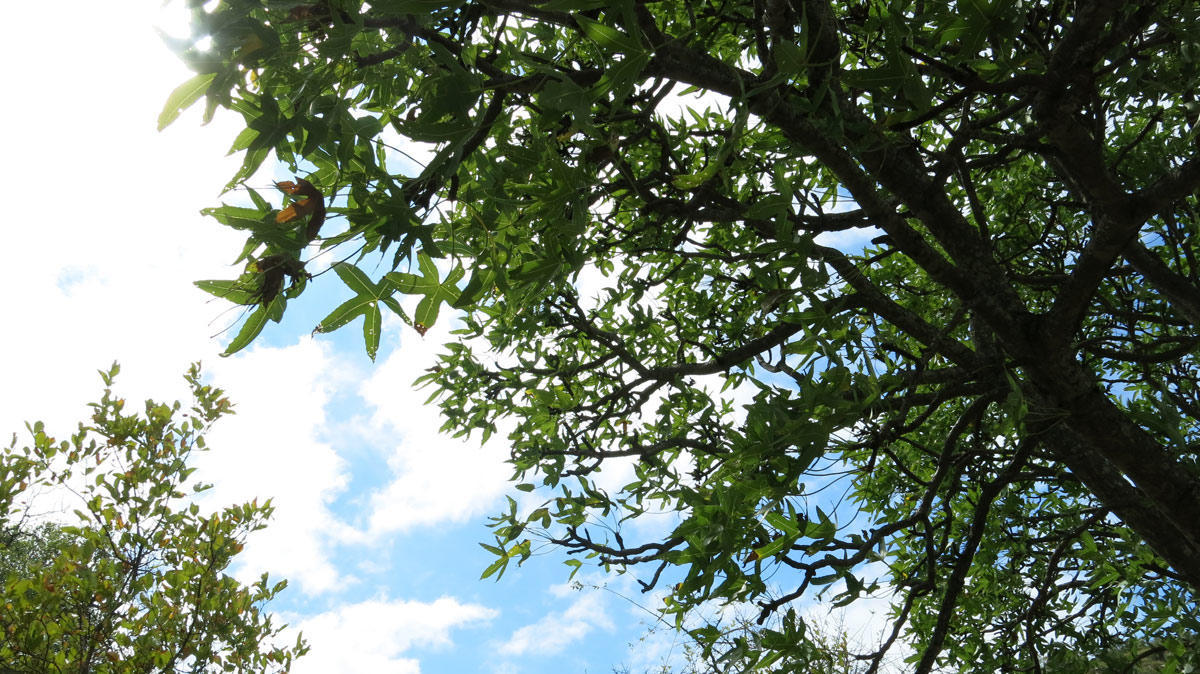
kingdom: Plantae
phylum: Tracheophyta
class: Magnoliopsida
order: Apiales
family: Araliaceae
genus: Cussonia
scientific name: Cussonia natalensis
